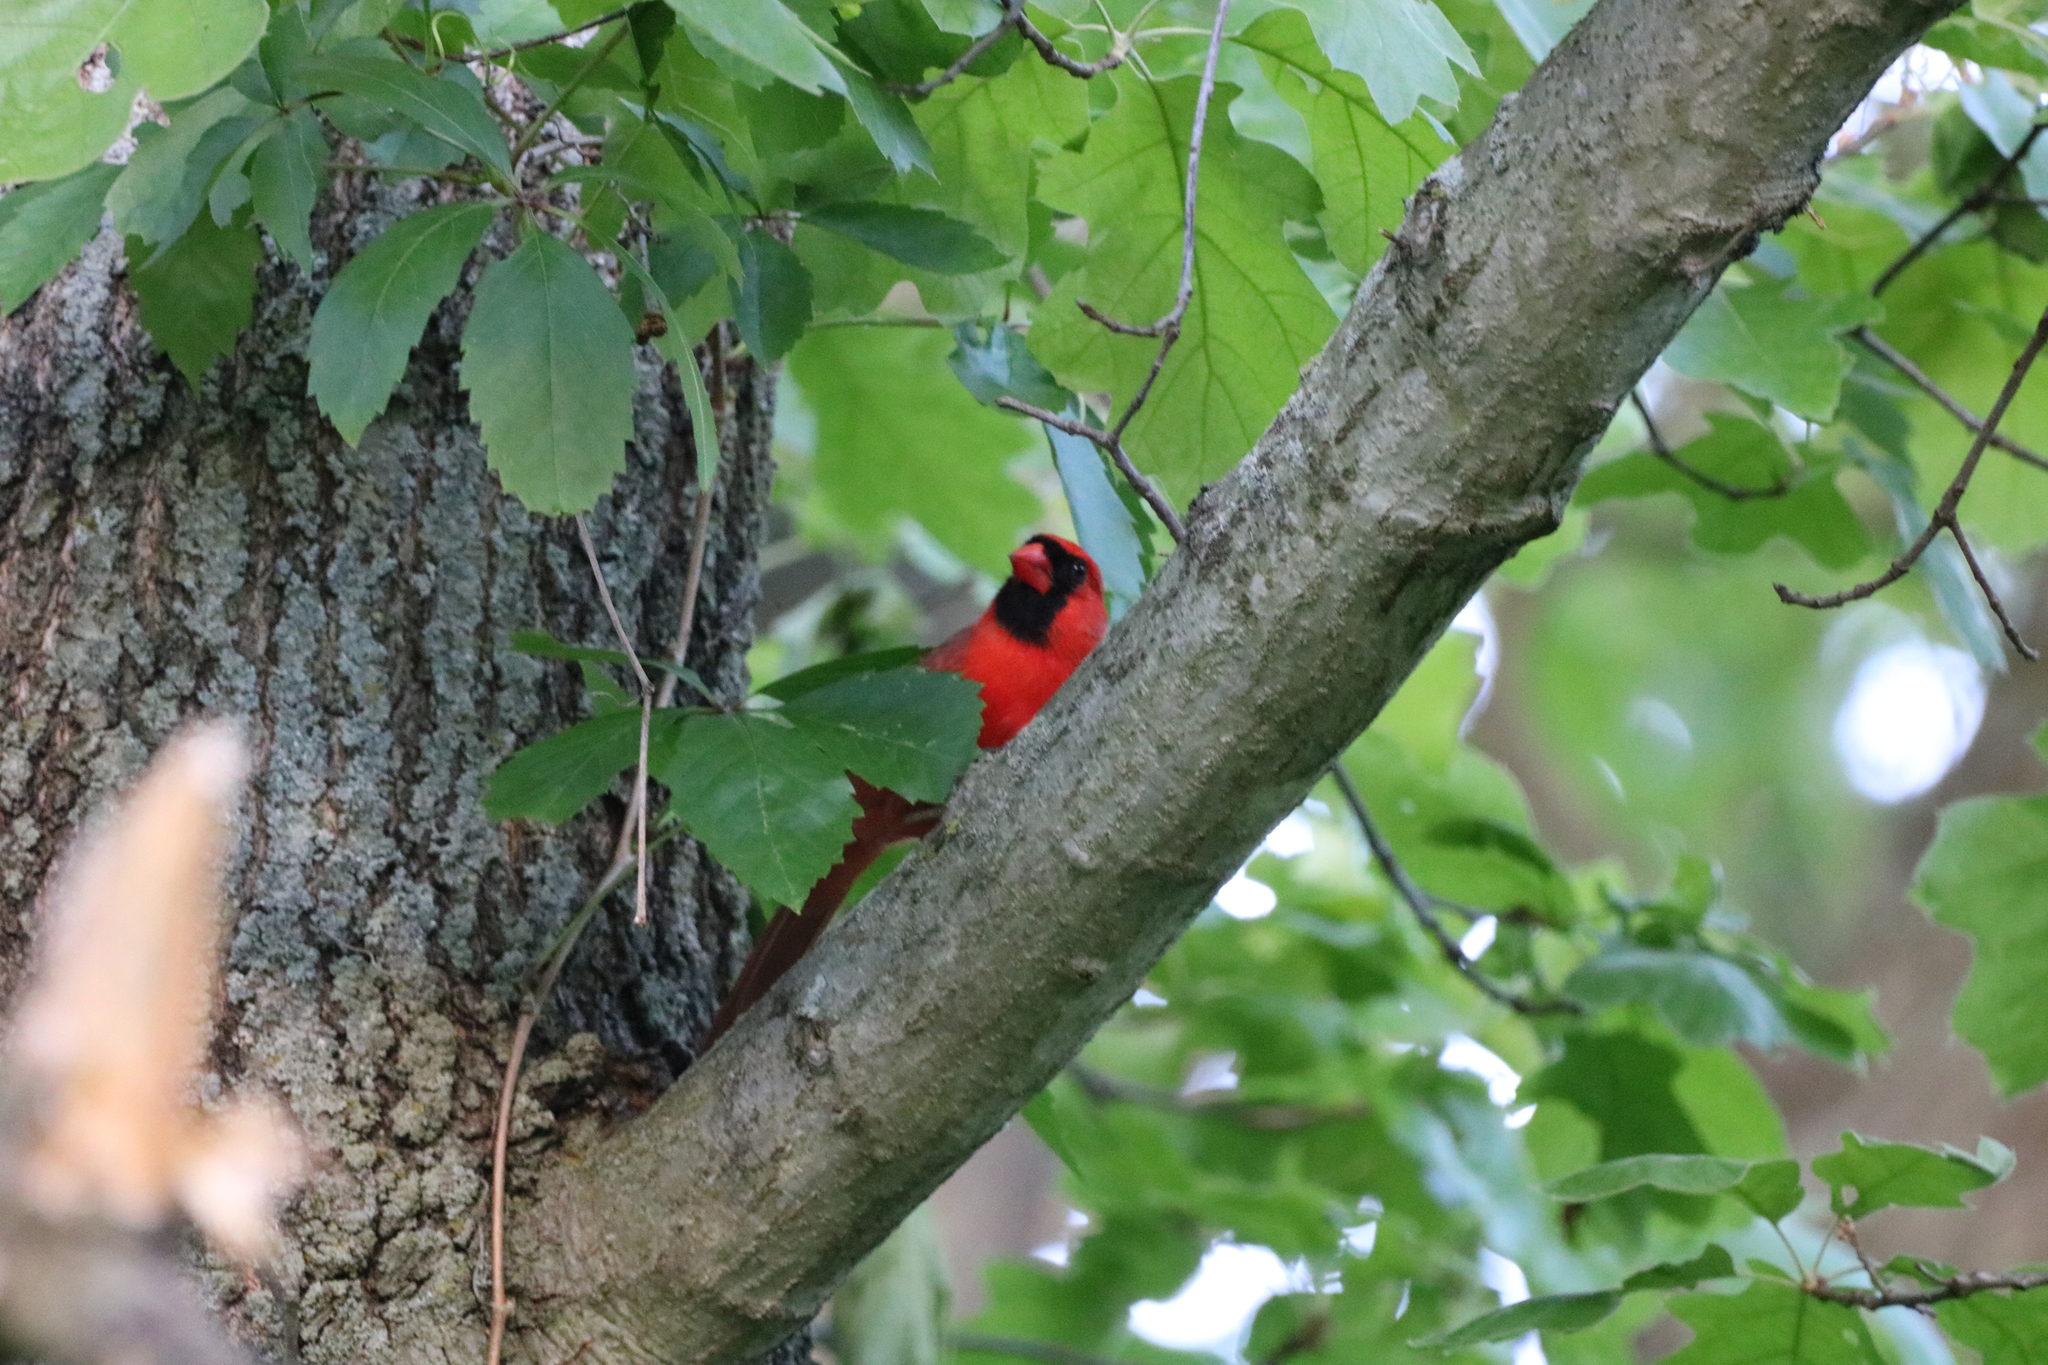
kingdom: Animalia
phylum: Chordata
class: Aves
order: Passeriformes
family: Cardinalidae
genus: Cardinalis
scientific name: Cardinalis cardinalis
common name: Northern cardinal
